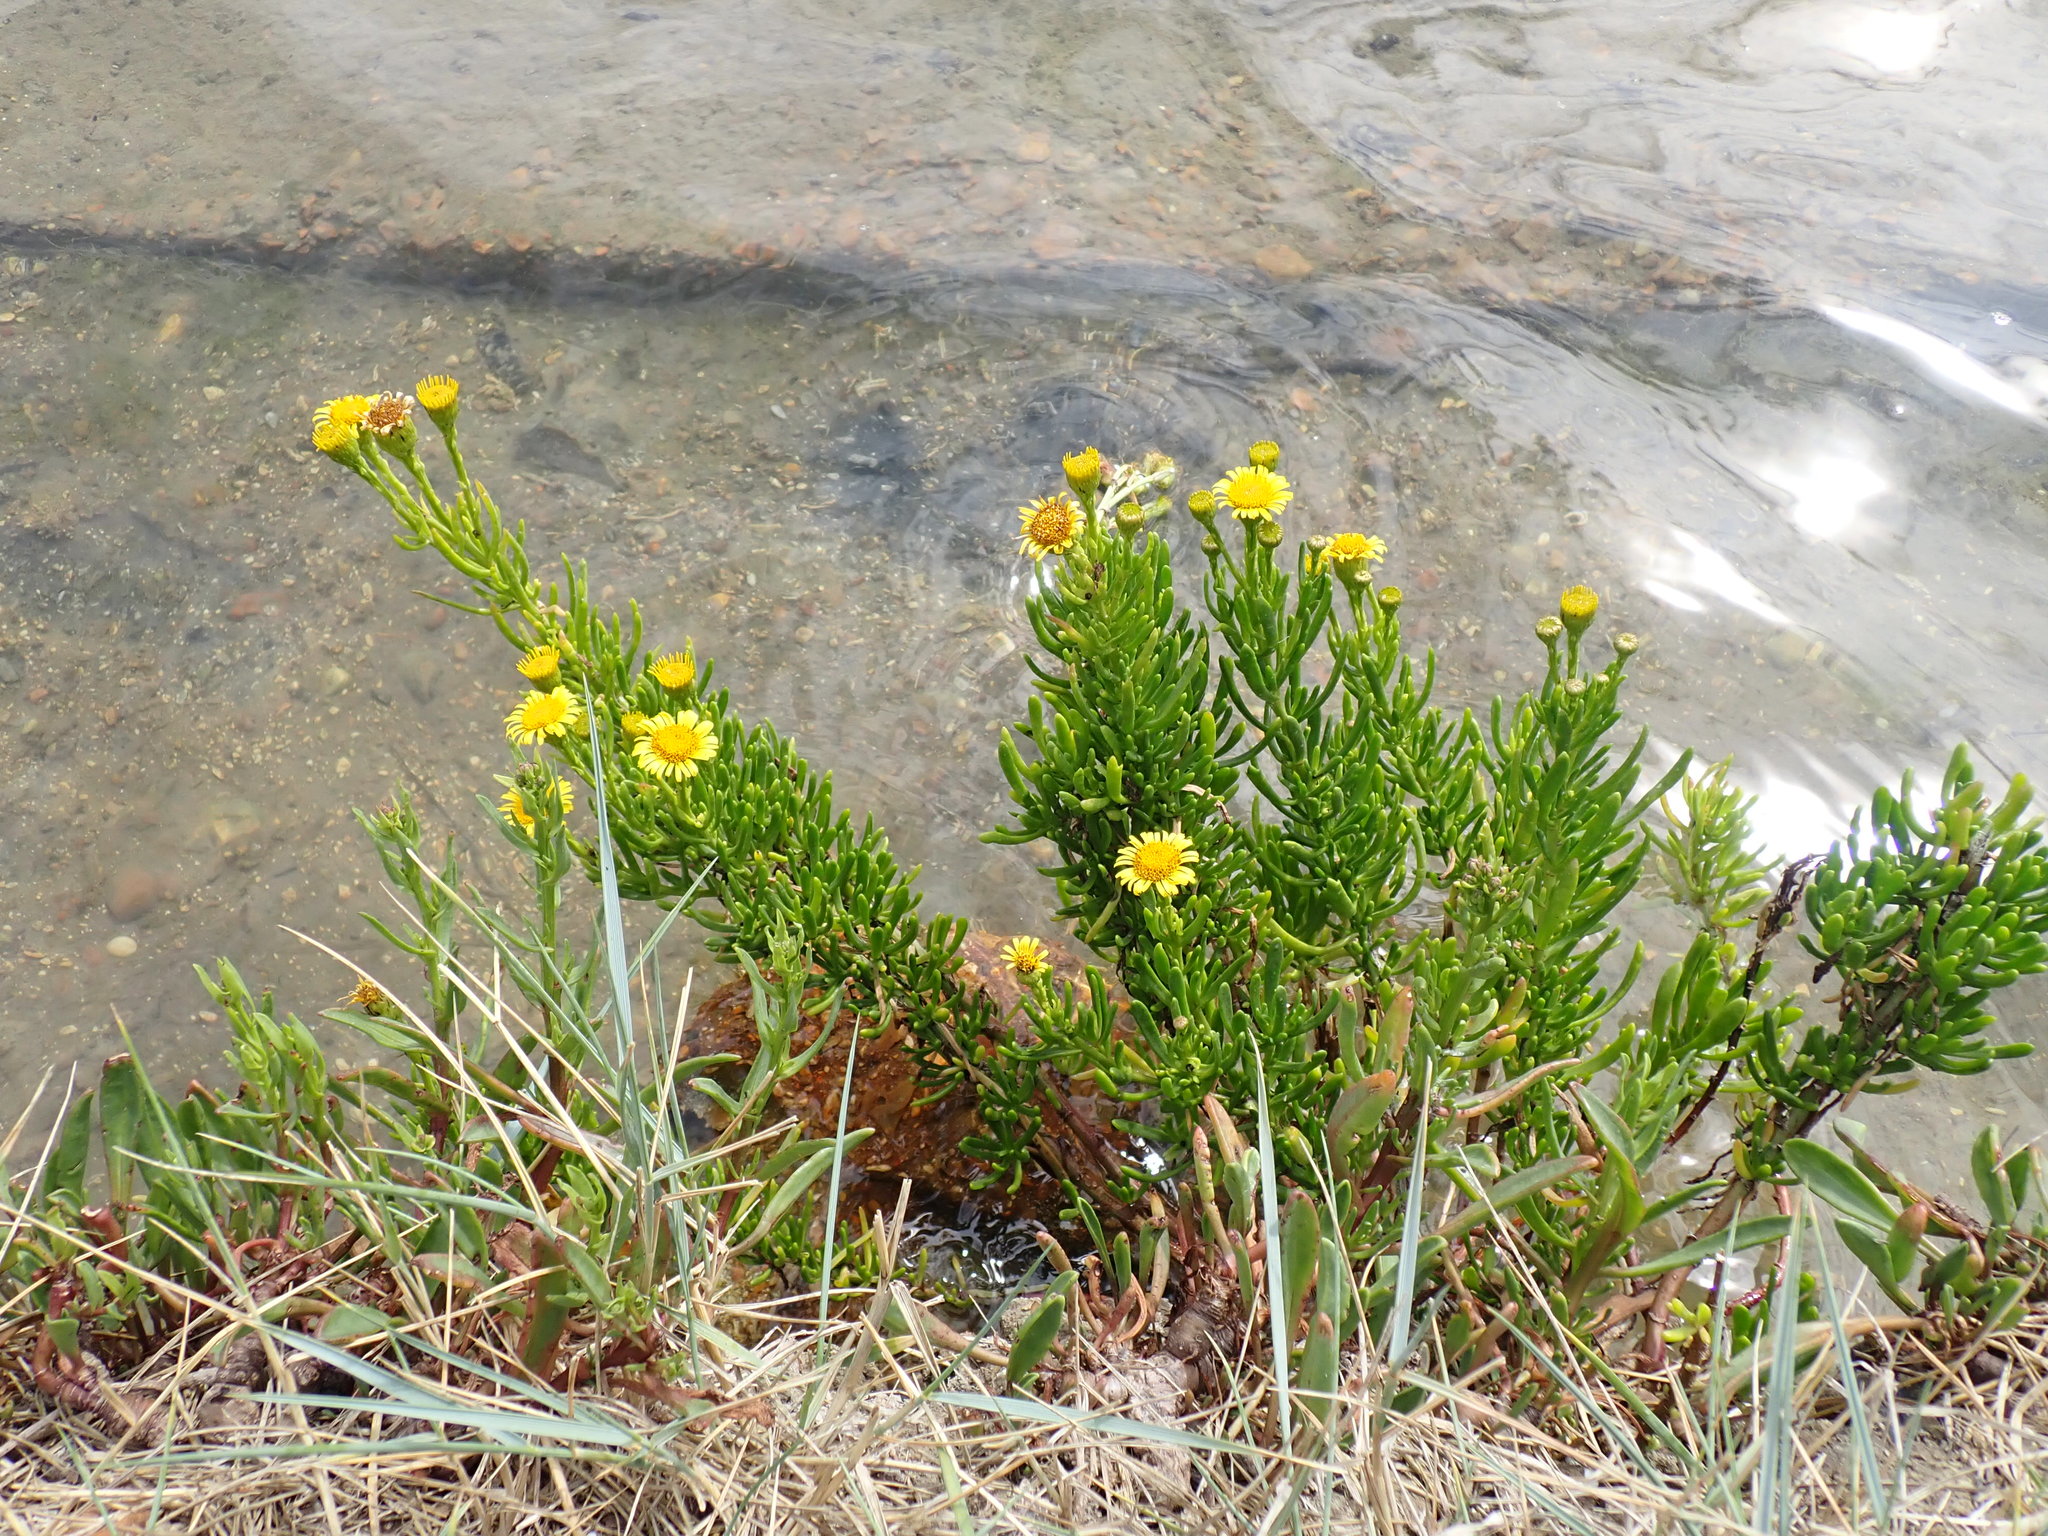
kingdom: Plantae
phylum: Tracheophyta
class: Magnoliopsida
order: Asterales
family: Asteraceae
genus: Limbarda
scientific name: Limbarda crithmoides
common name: Golden samphire
